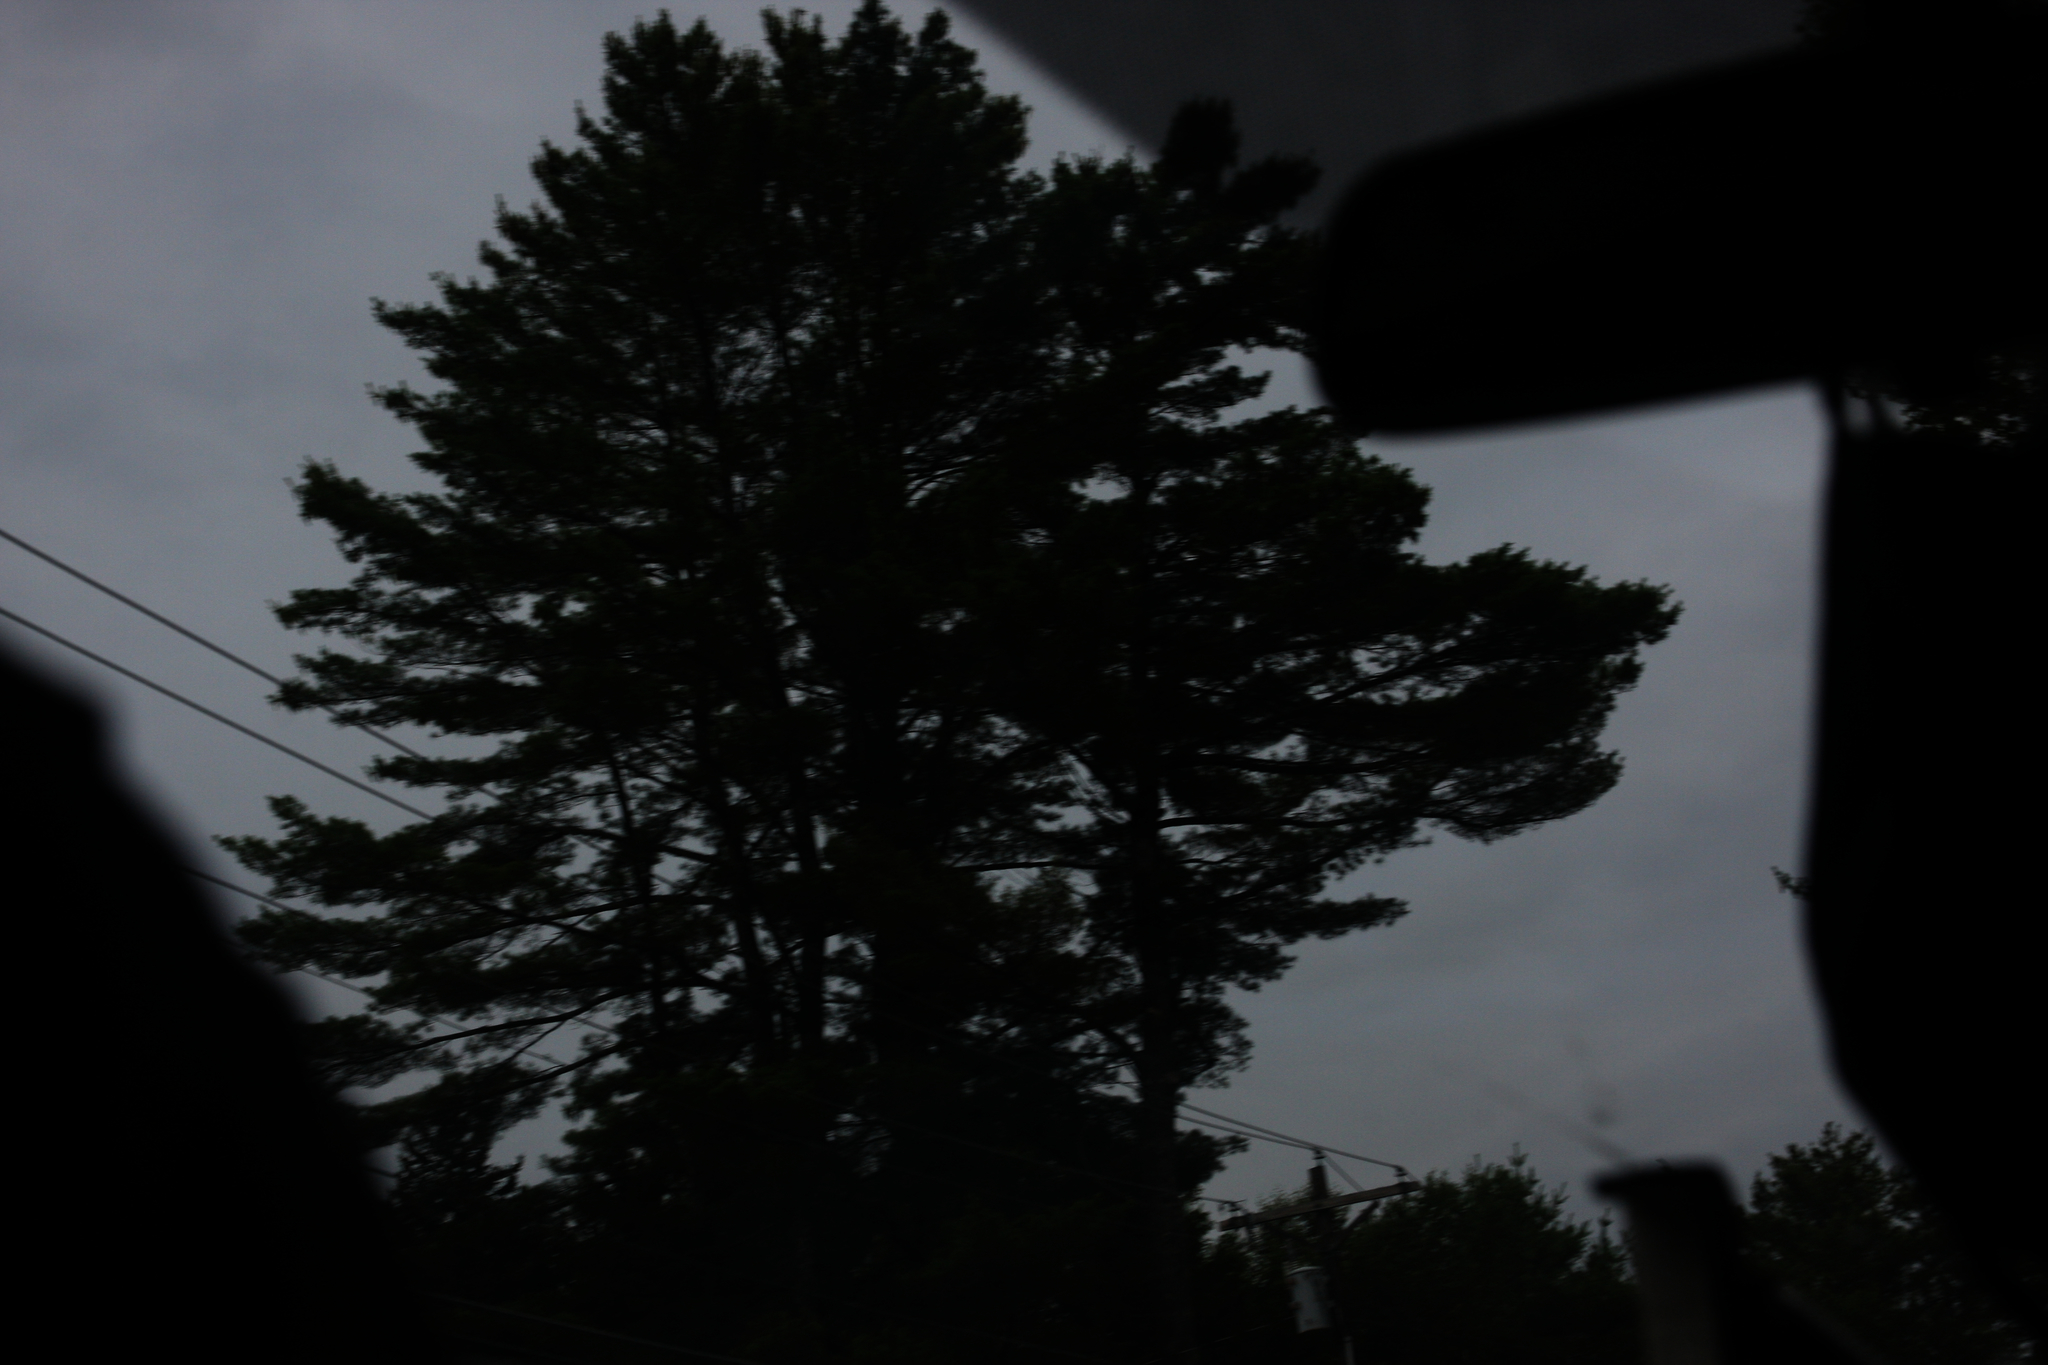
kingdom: Plantae
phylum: Tracheophyta
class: Pinopsida
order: Pinales
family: Pinaceae
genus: Pinus
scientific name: Pinus strobus
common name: Weymouth pine
